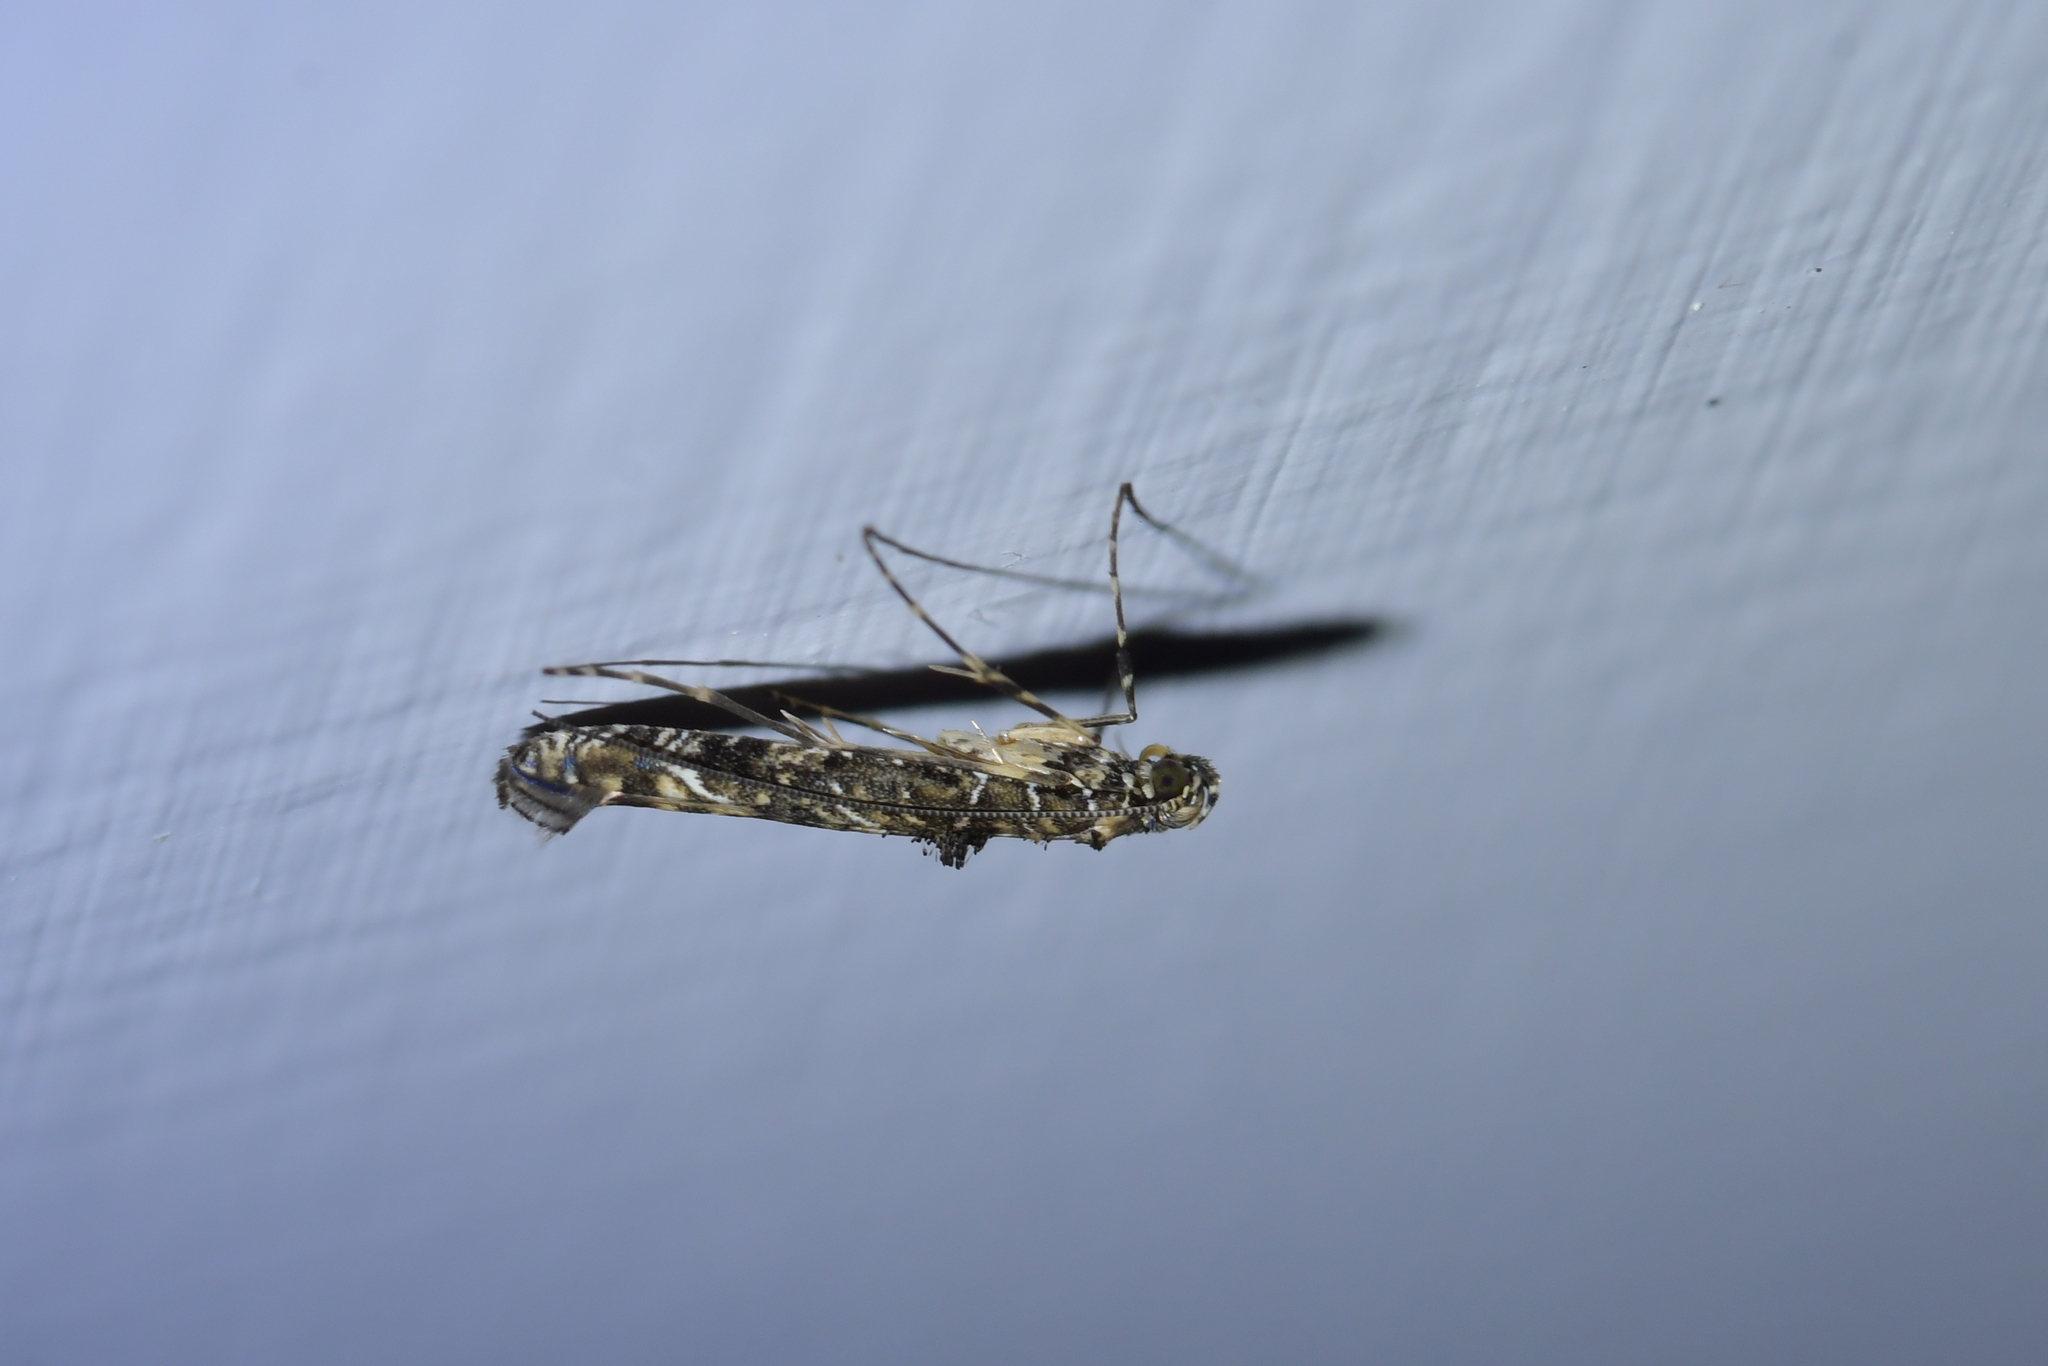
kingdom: Animalia
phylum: Arthropoda
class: Insecta
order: Lepidoptera
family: Gracillariidae
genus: Conopomorpha
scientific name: Conopomorpha cyanospila
